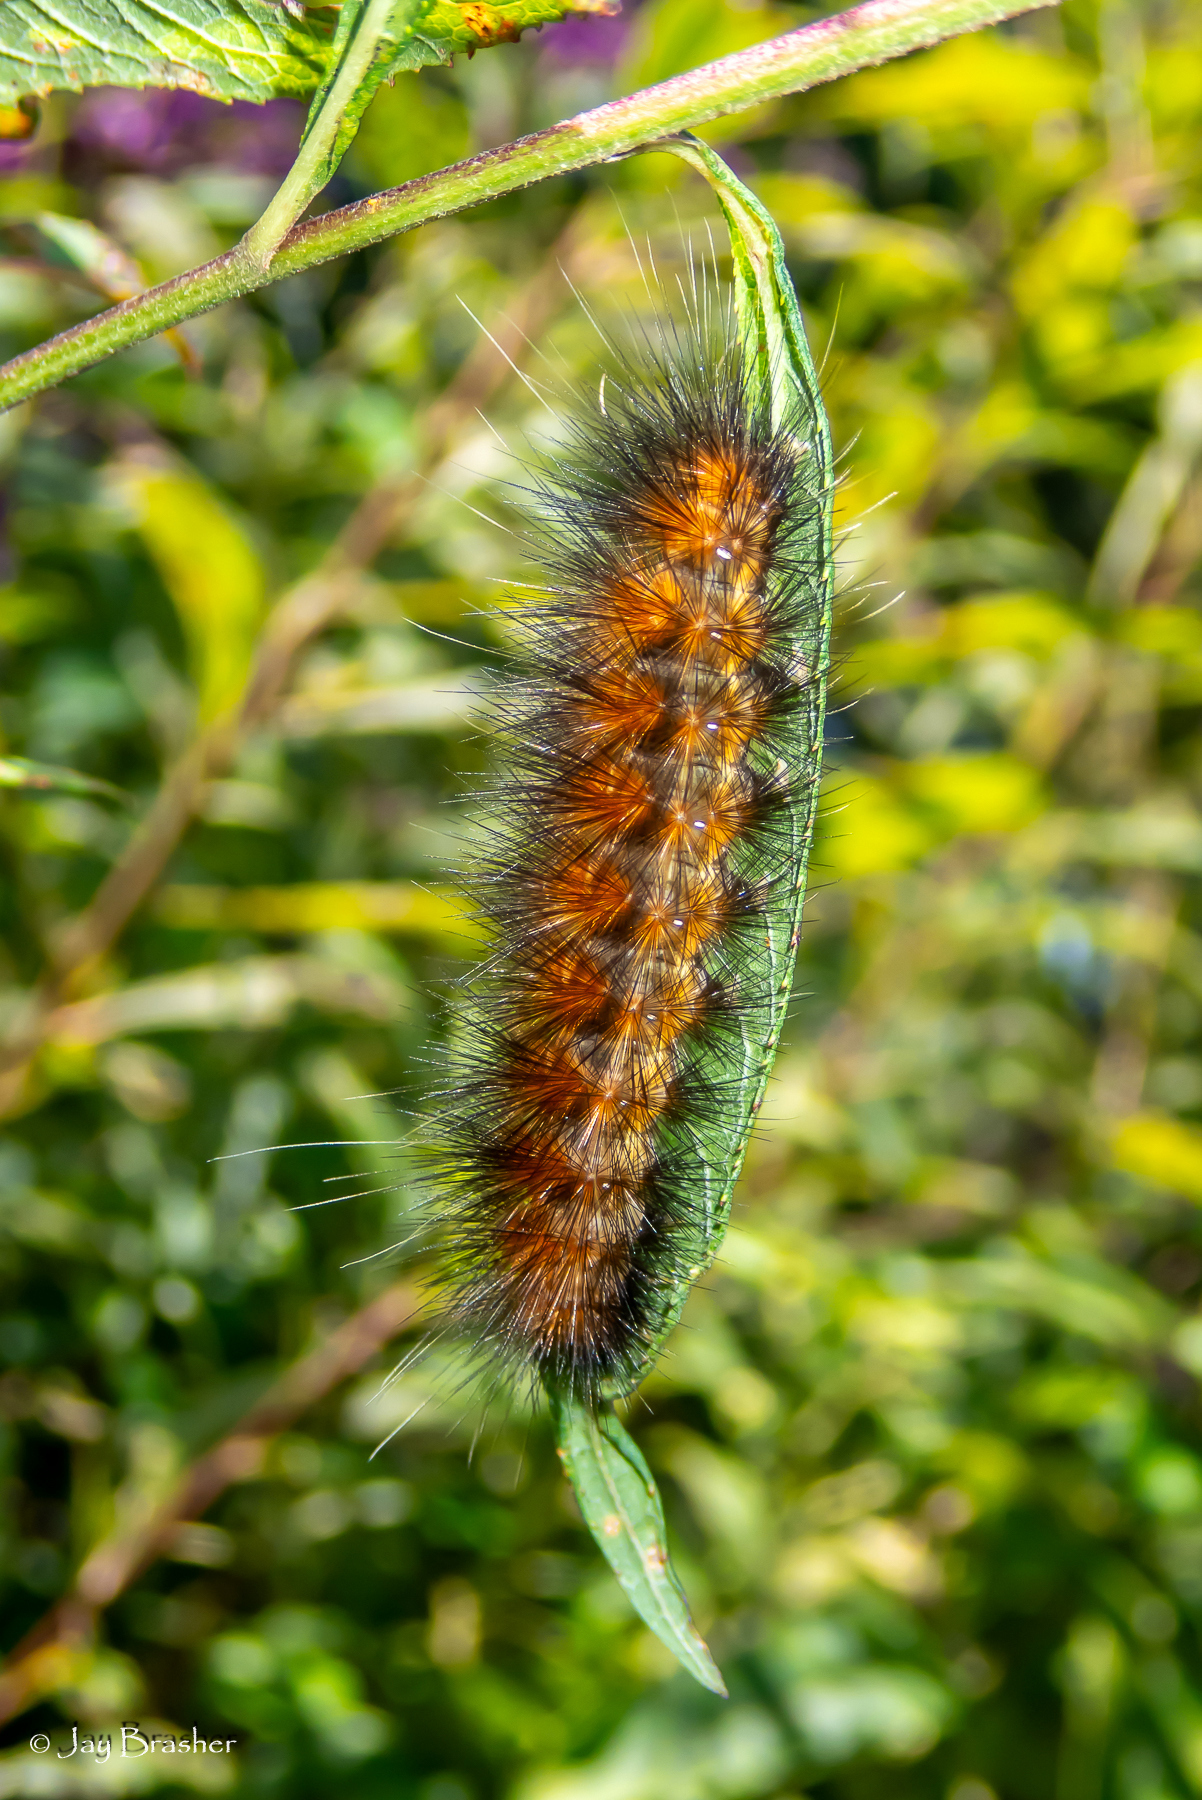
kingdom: Animalia
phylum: Arthropoda
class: Insecta
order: Lepidoptera
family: Erebidae
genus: Spilosoma
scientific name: Spilosoma virginica
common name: Virginia tiger moth
